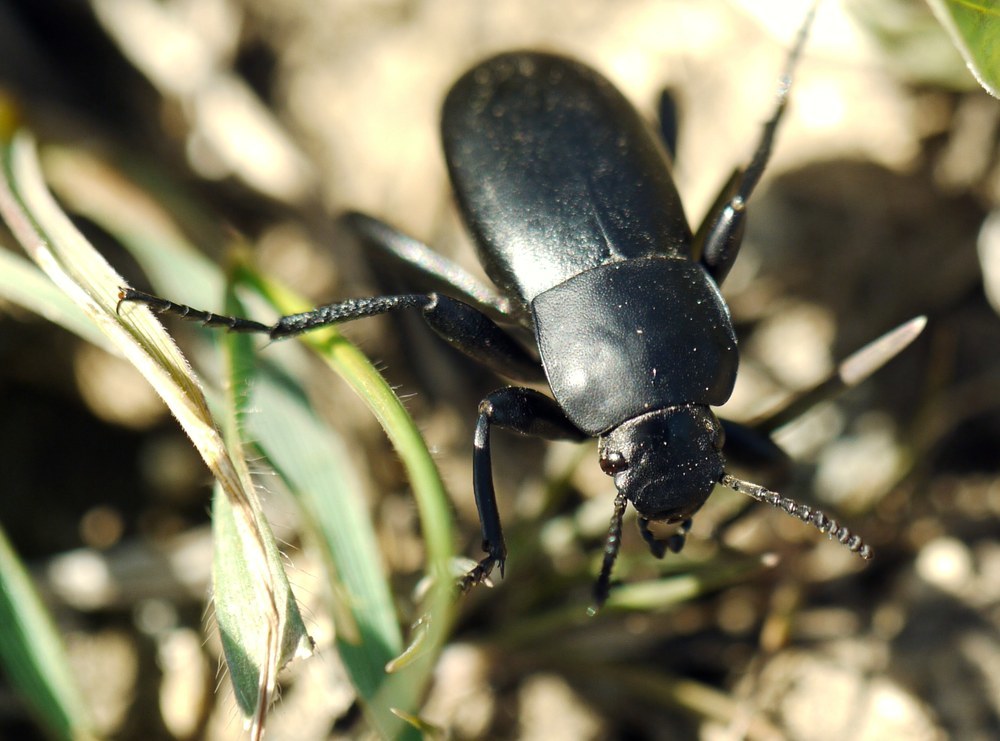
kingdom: Animalia
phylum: Arthropoda
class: Insecta
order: Coleoptera
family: Tenebrionidae
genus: Prosodes
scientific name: Prosodes obtusa
